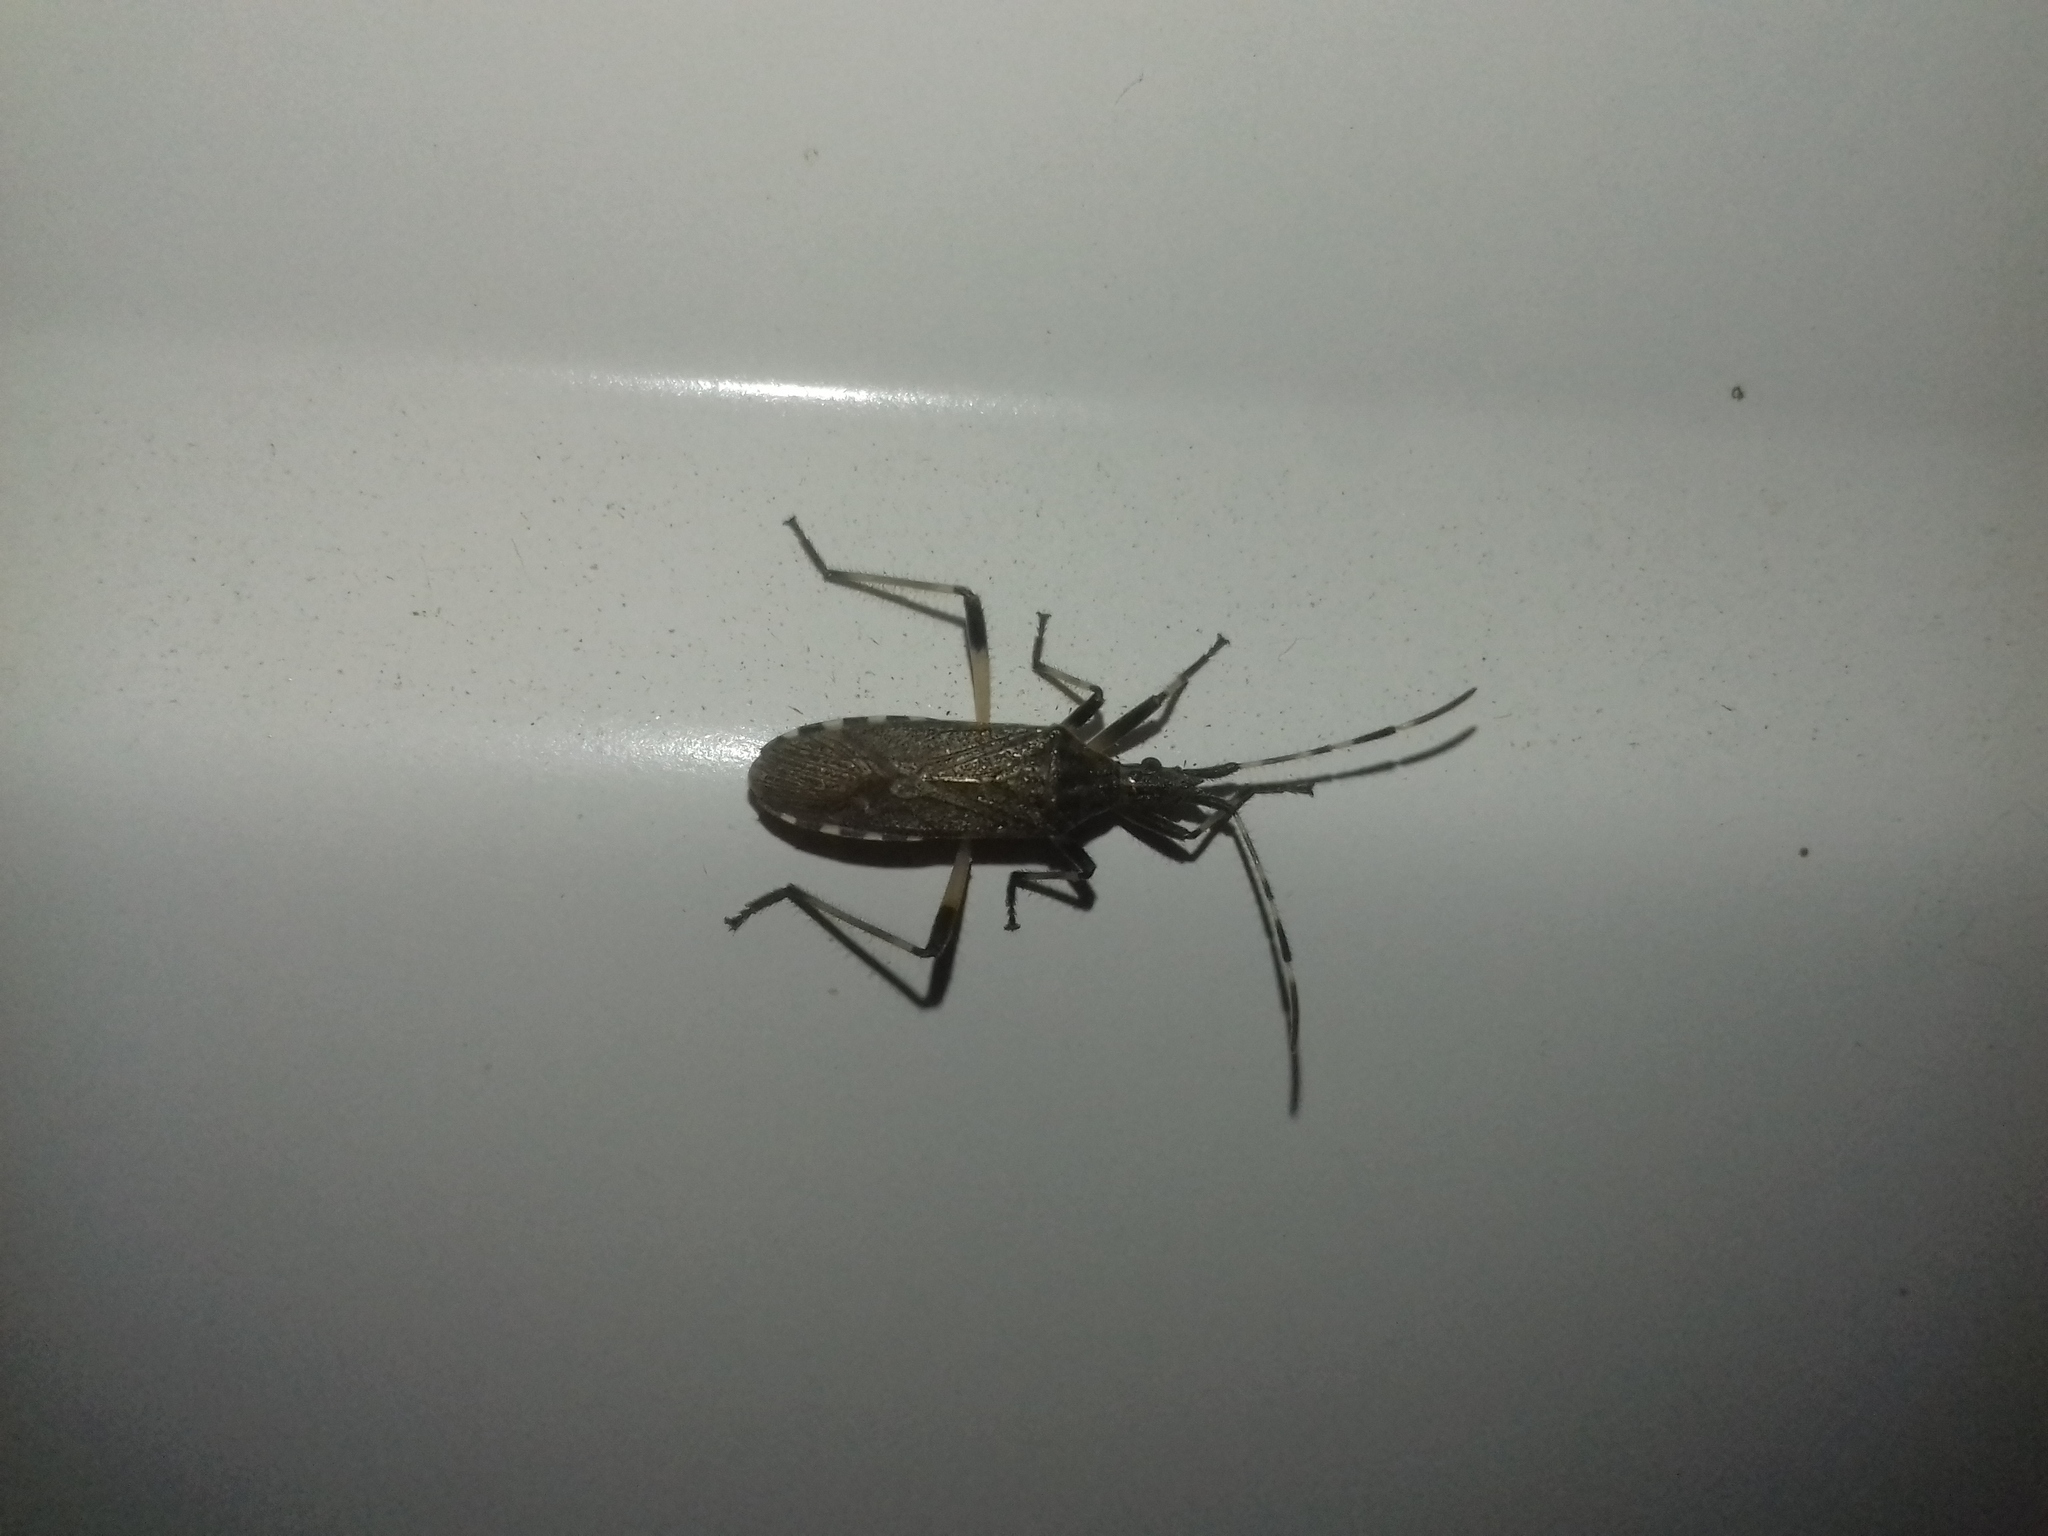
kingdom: Animalia
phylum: Arthropoda
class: Insecta
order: Hemiptera
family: Stenocephalidae
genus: Dicranocephalus
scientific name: Dicranocephalus setulosus
